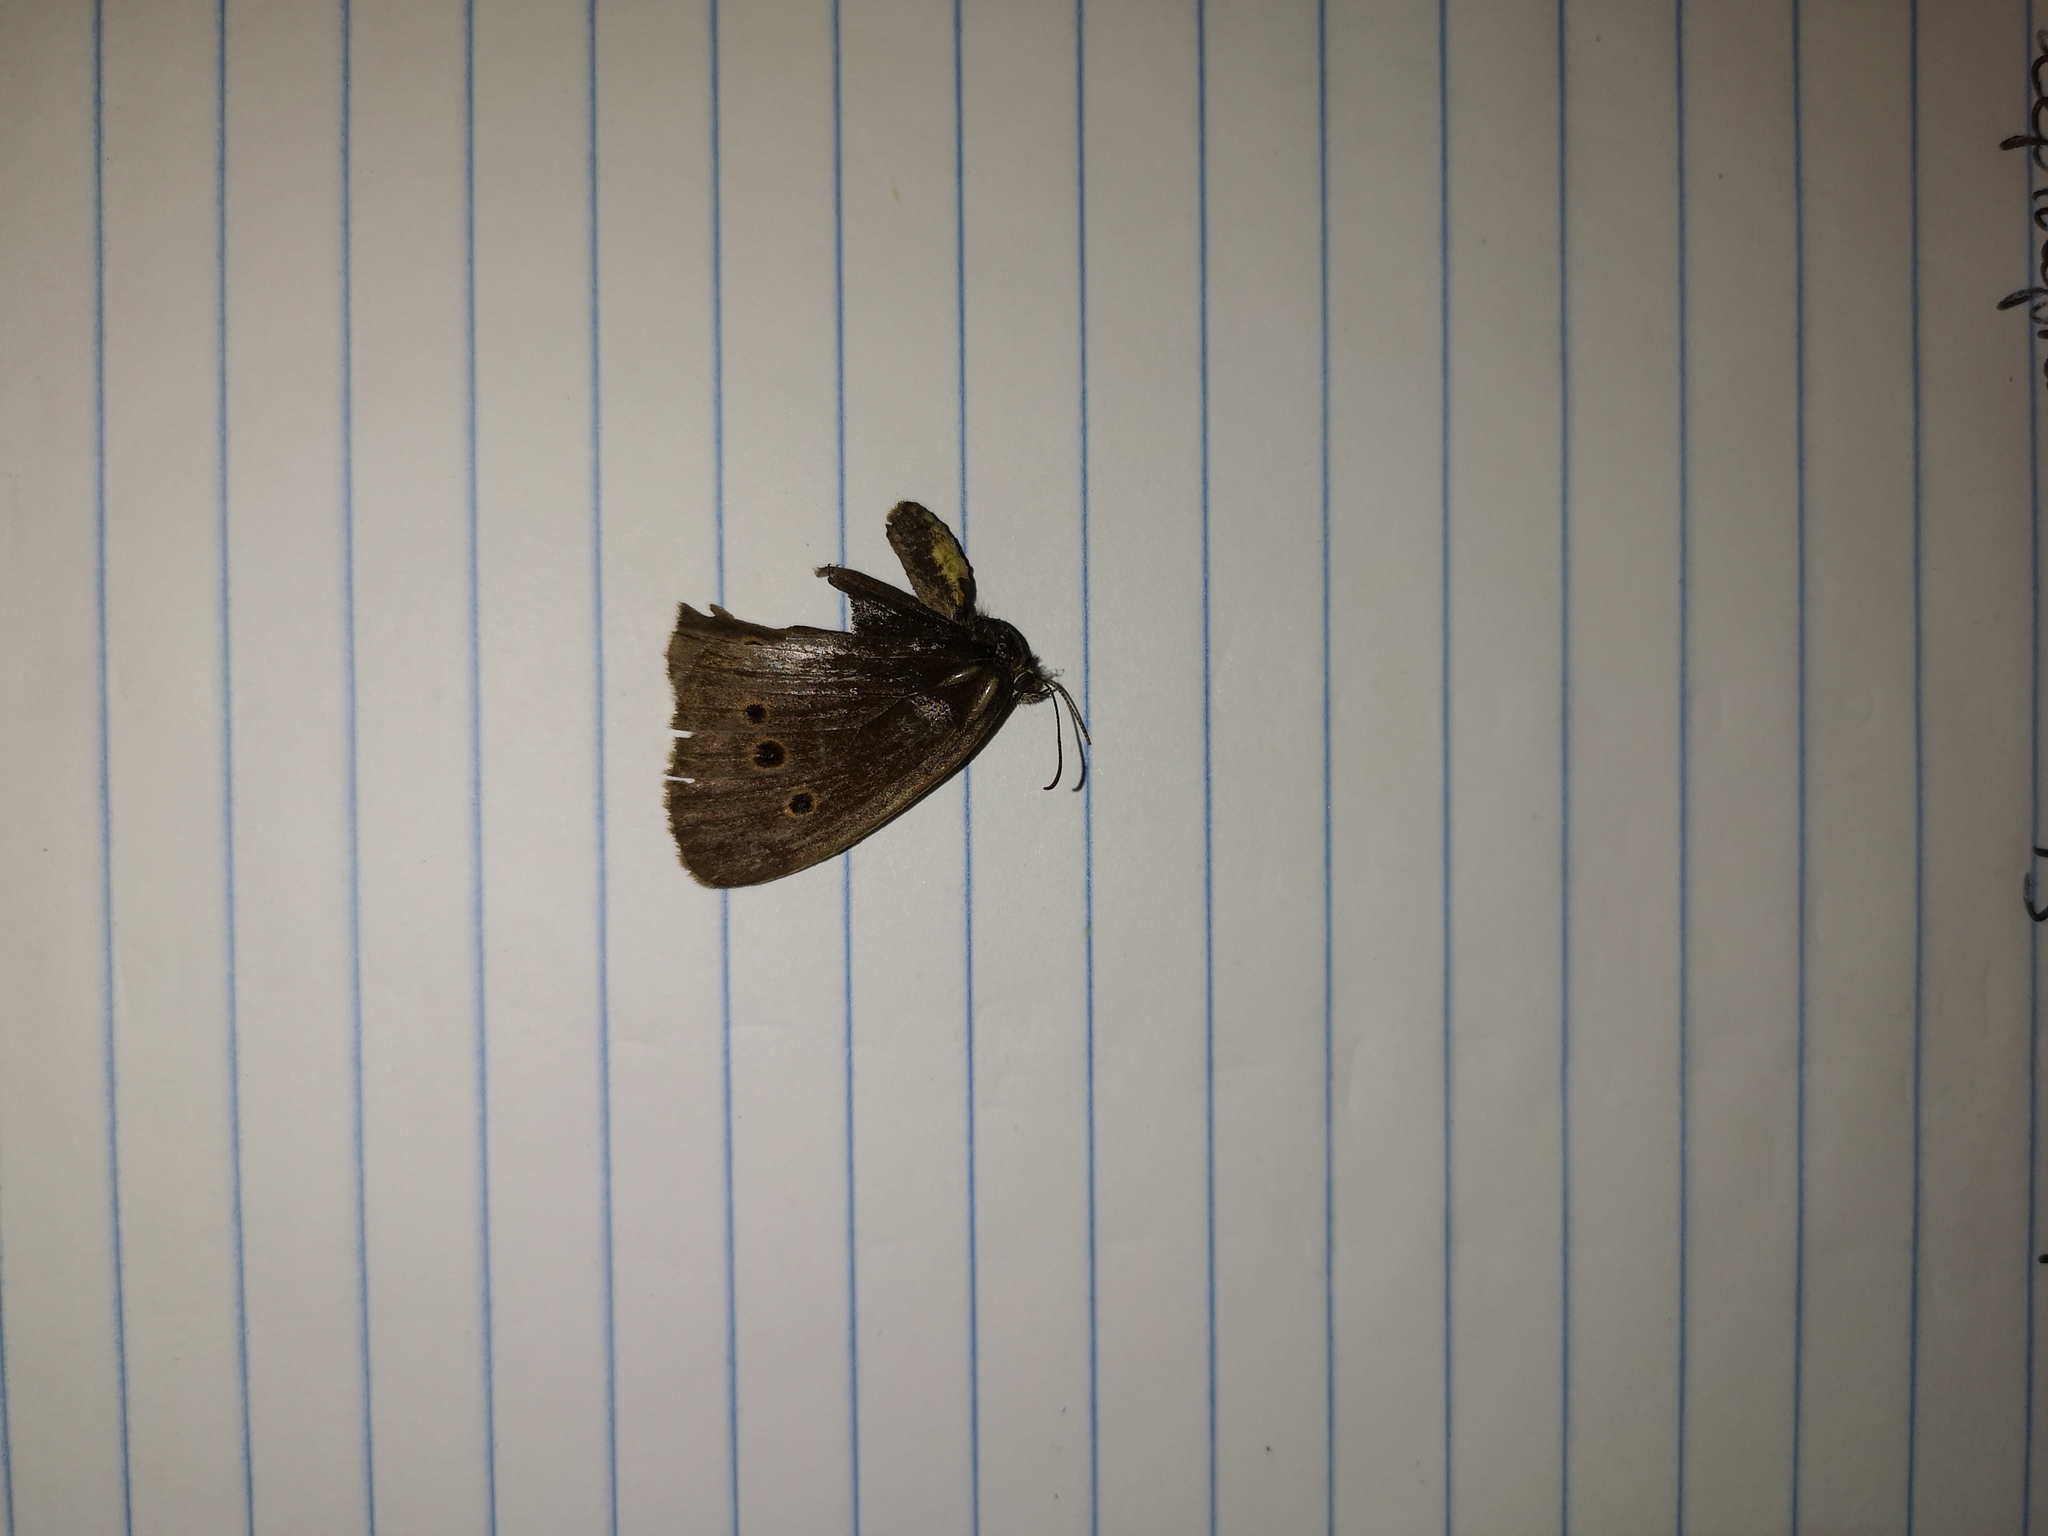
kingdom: Animalia
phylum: Arthropoda
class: Insecta
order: Lepidoptera
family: Nymphalidae
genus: Aphantopus
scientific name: Aphantopus hyperantus
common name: Ringlet
